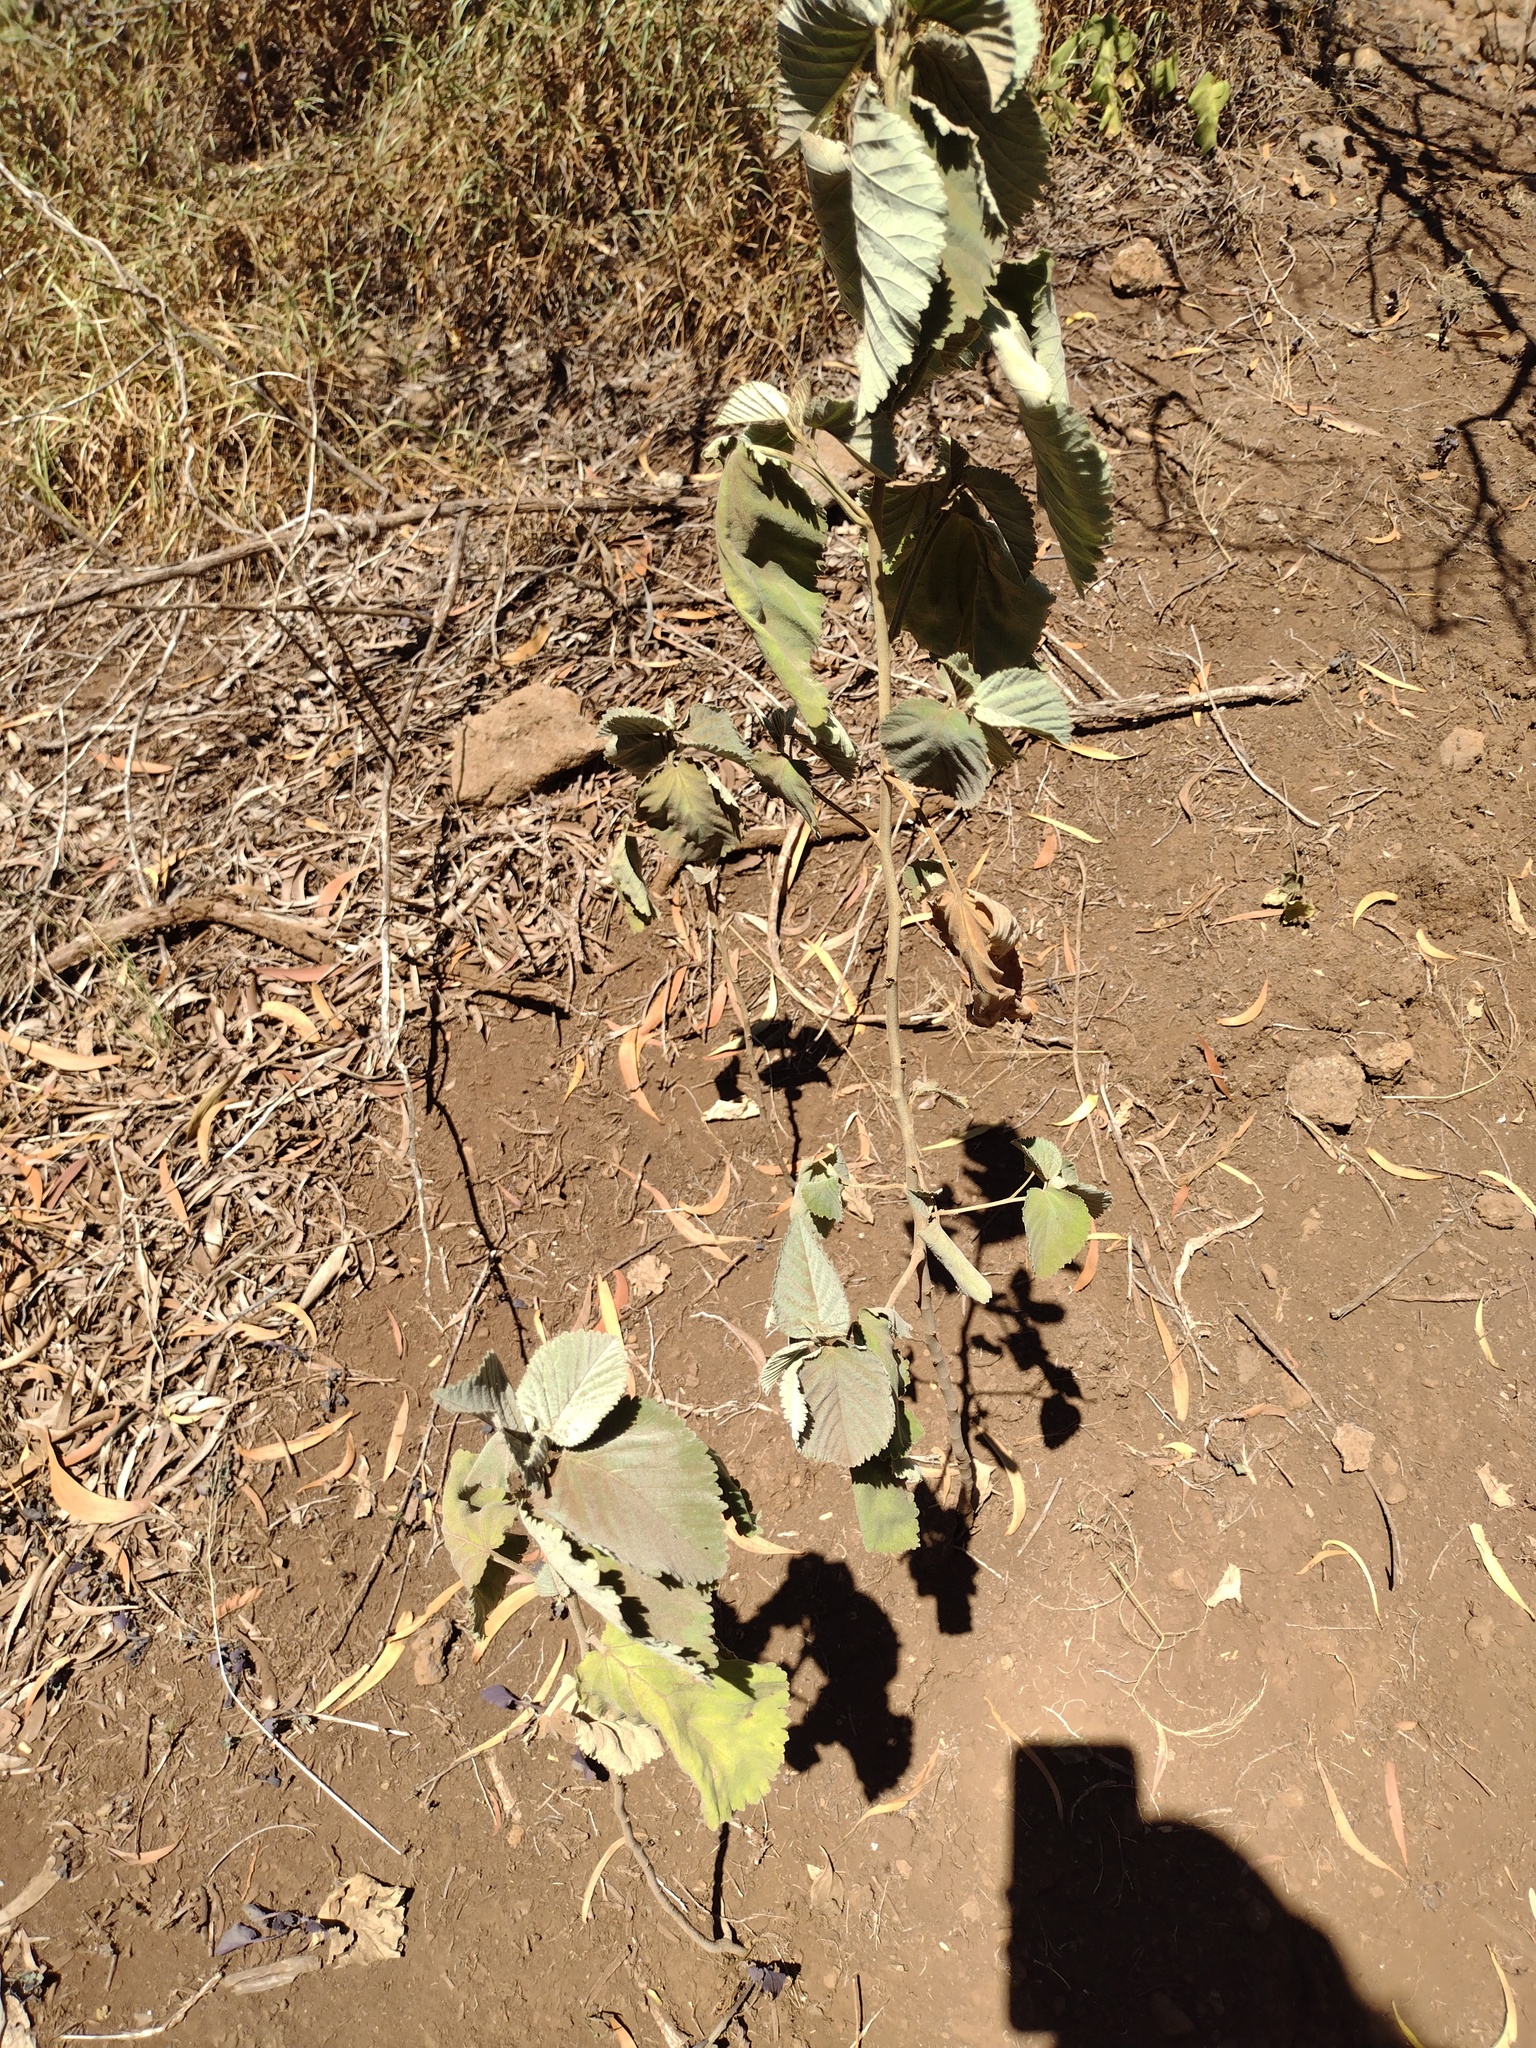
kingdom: Plantae
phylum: Tracheophyta
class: Magnoliopsida
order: Malvales
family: Malvaceae
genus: Sida
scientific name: Sida fallax
